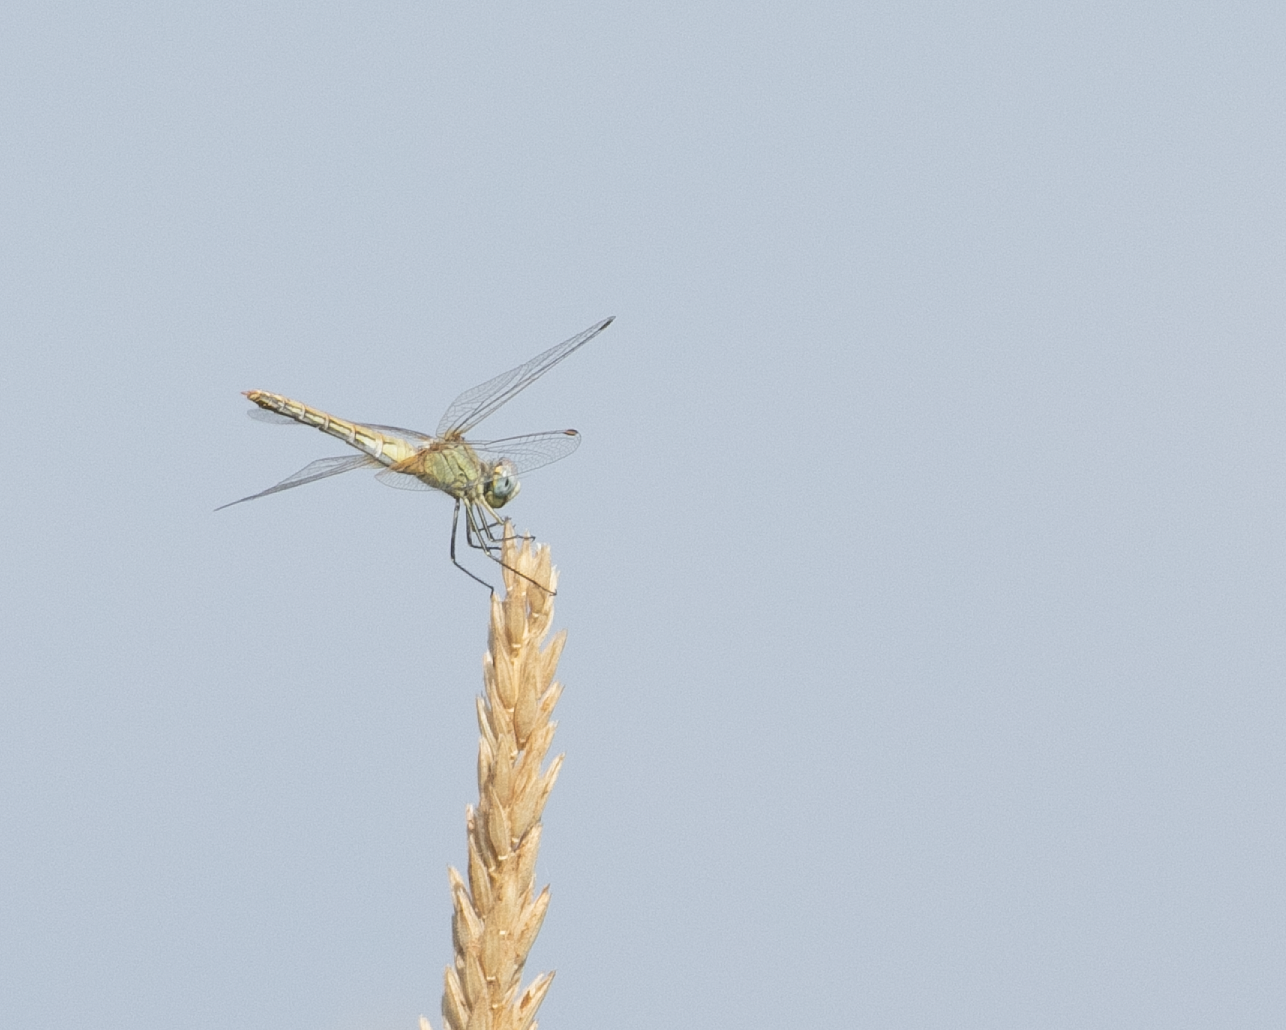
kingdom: Animalia
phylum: Arthropoda
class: Insecta
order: Odonata
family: Libellulidae
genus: Sympetrum
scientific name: Sympetrum fonscolombii
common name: Red-veined darter
